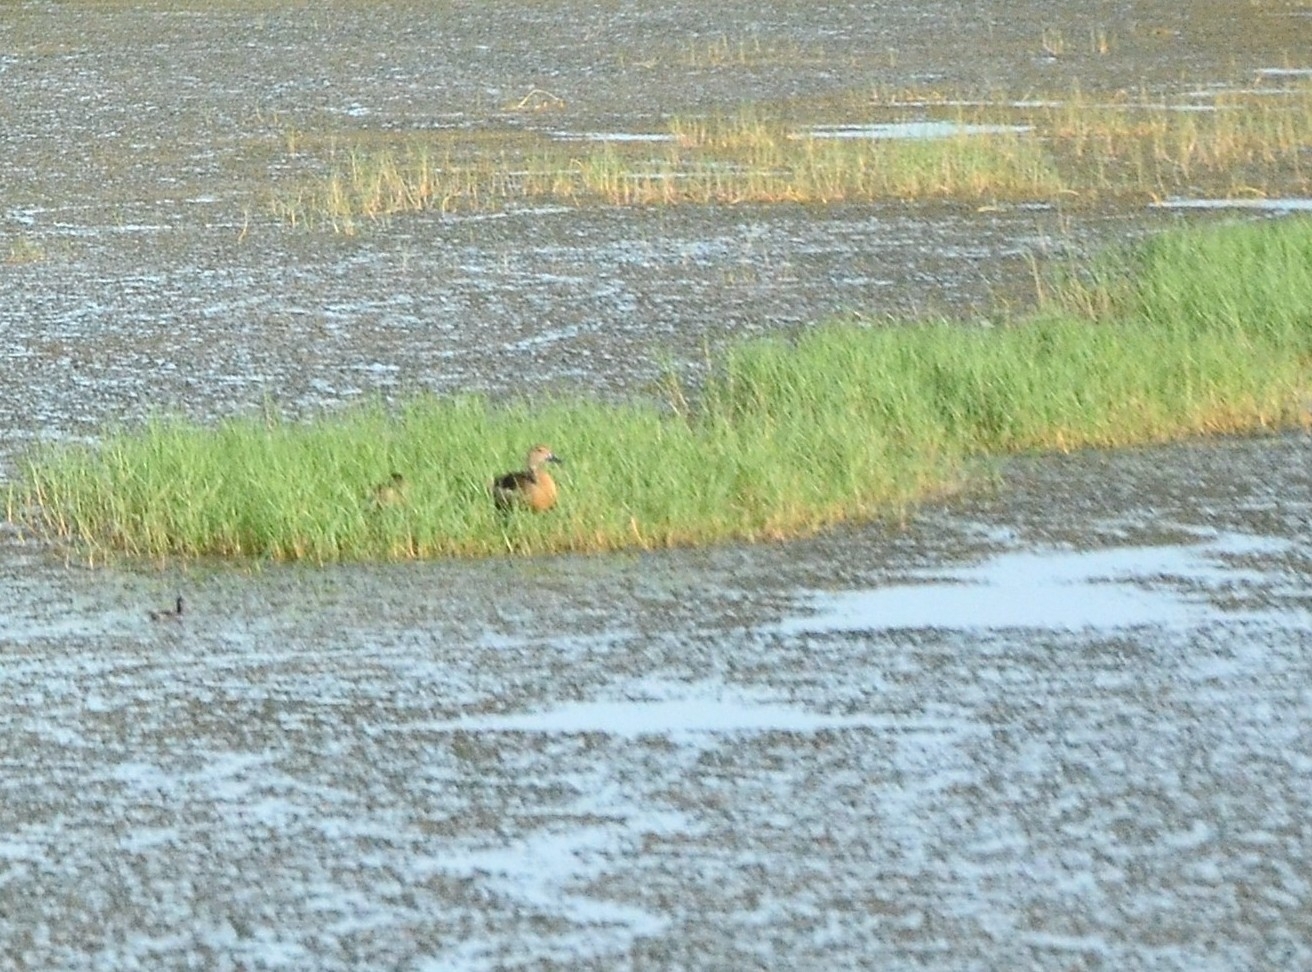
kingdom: Animalia
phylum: Chordata
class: Aves
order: Anseriformes
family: Anatidae
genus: Dendrocygna
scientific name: Dendrocygna javanica
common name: Lesser whistling-duck
